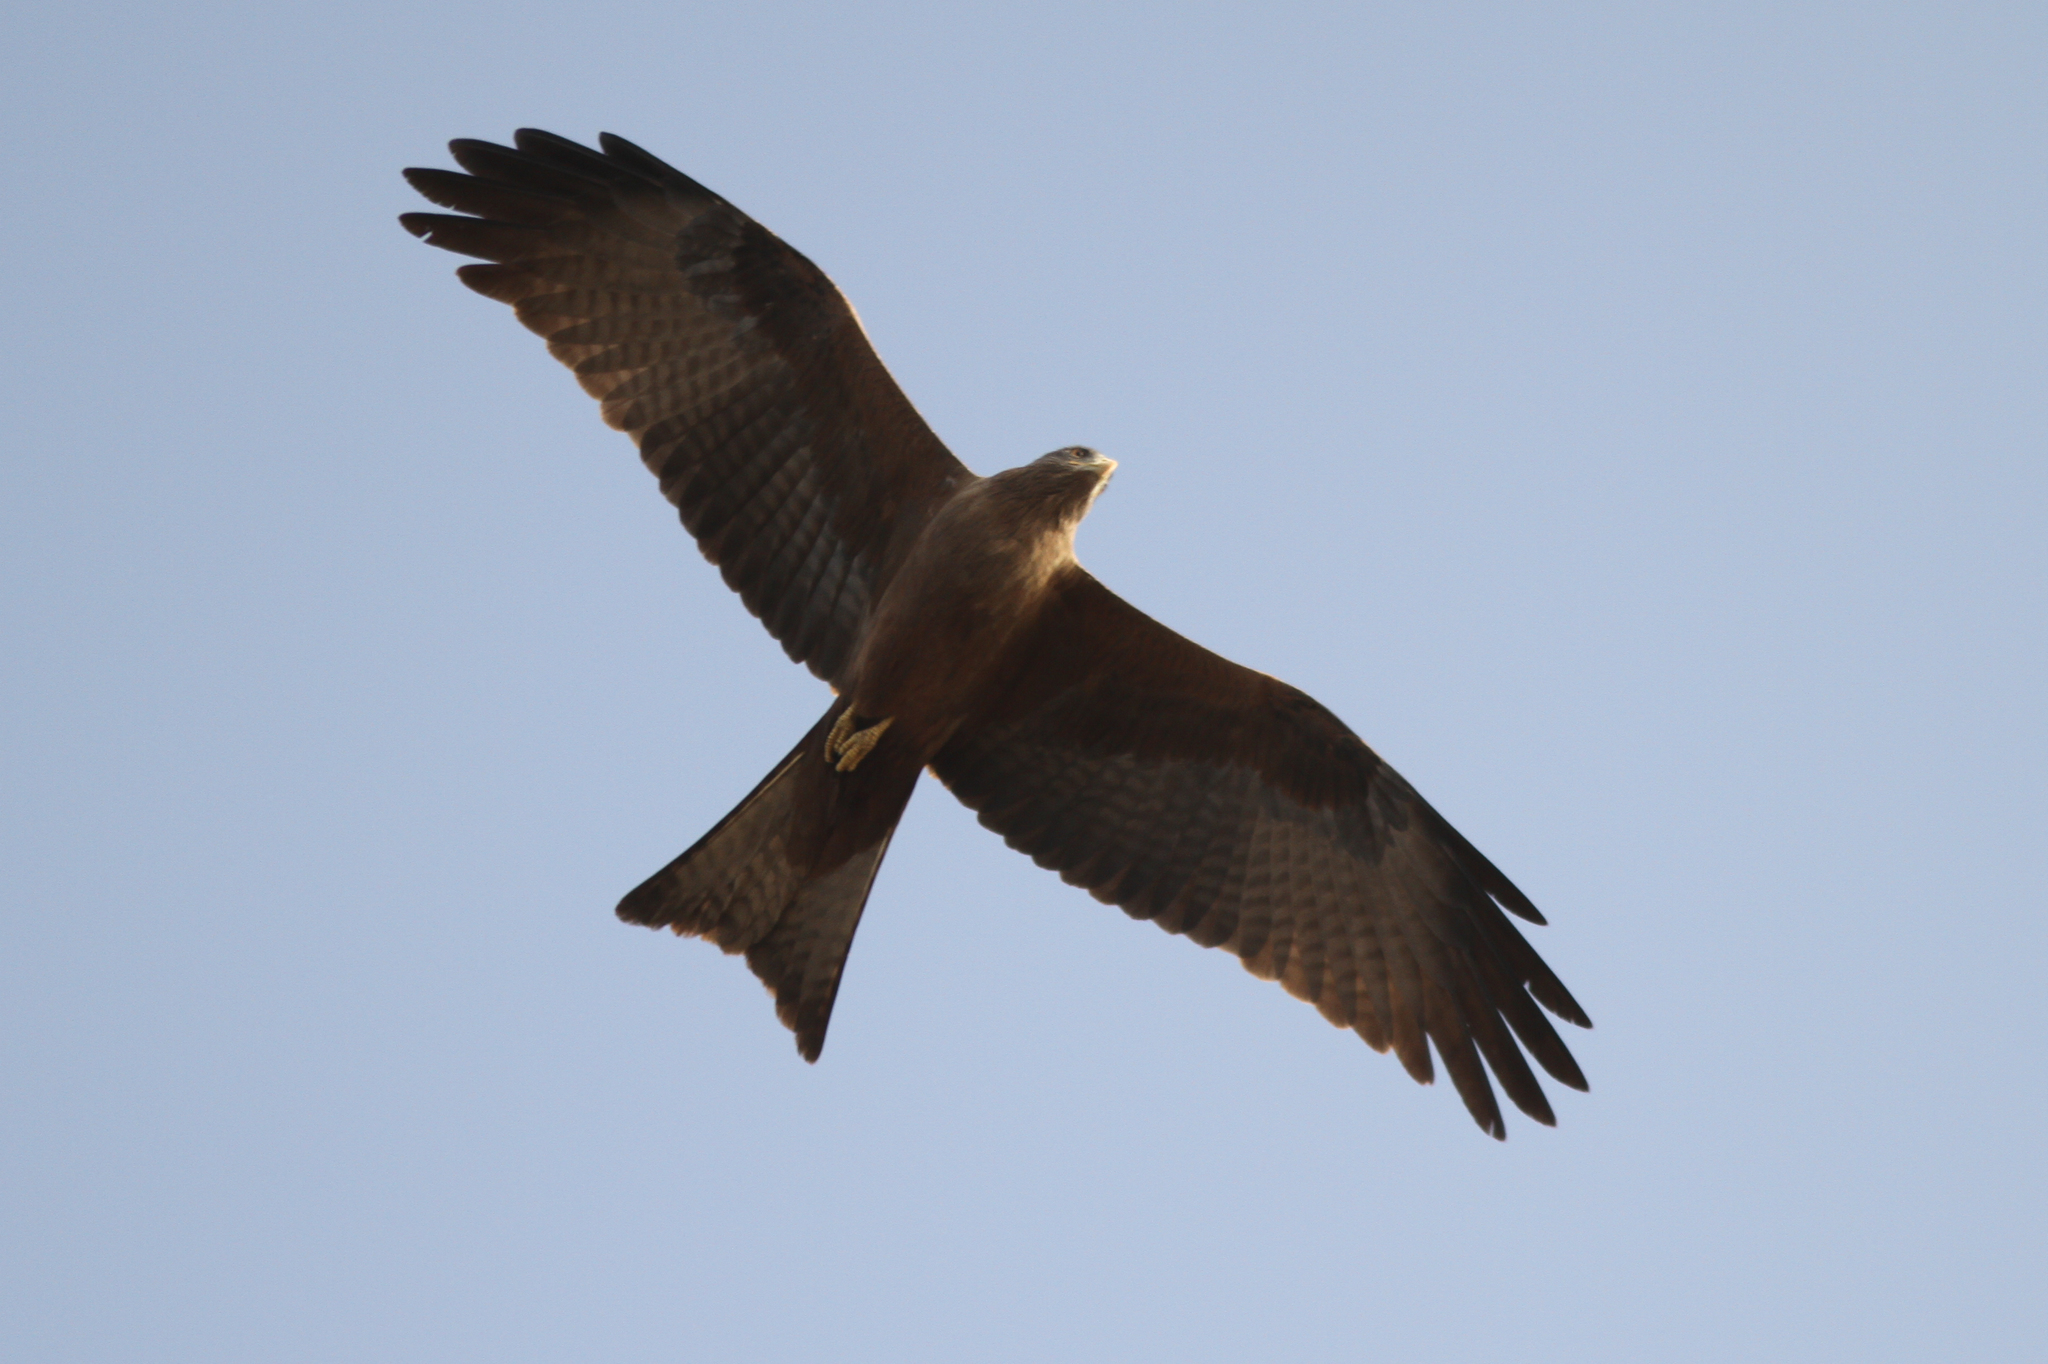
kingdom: Animalia
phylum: Chordata
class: Aves
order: Accipitriformes
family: Accipitridae
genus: Milvus
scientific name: Milvus migrans
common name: Black kite
